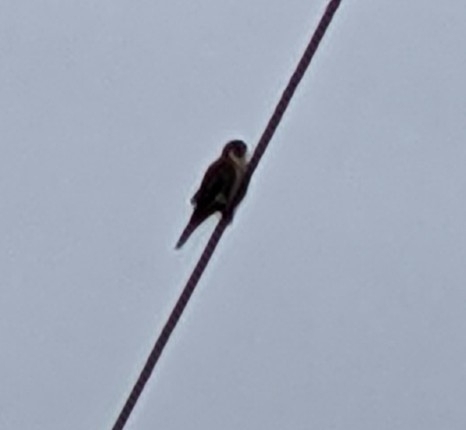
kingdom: Animalia
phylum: Chordata
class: Aves
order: Falconiformes
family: Falconidae
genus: Falco
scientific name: Falco sparverius
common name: American kestrel
